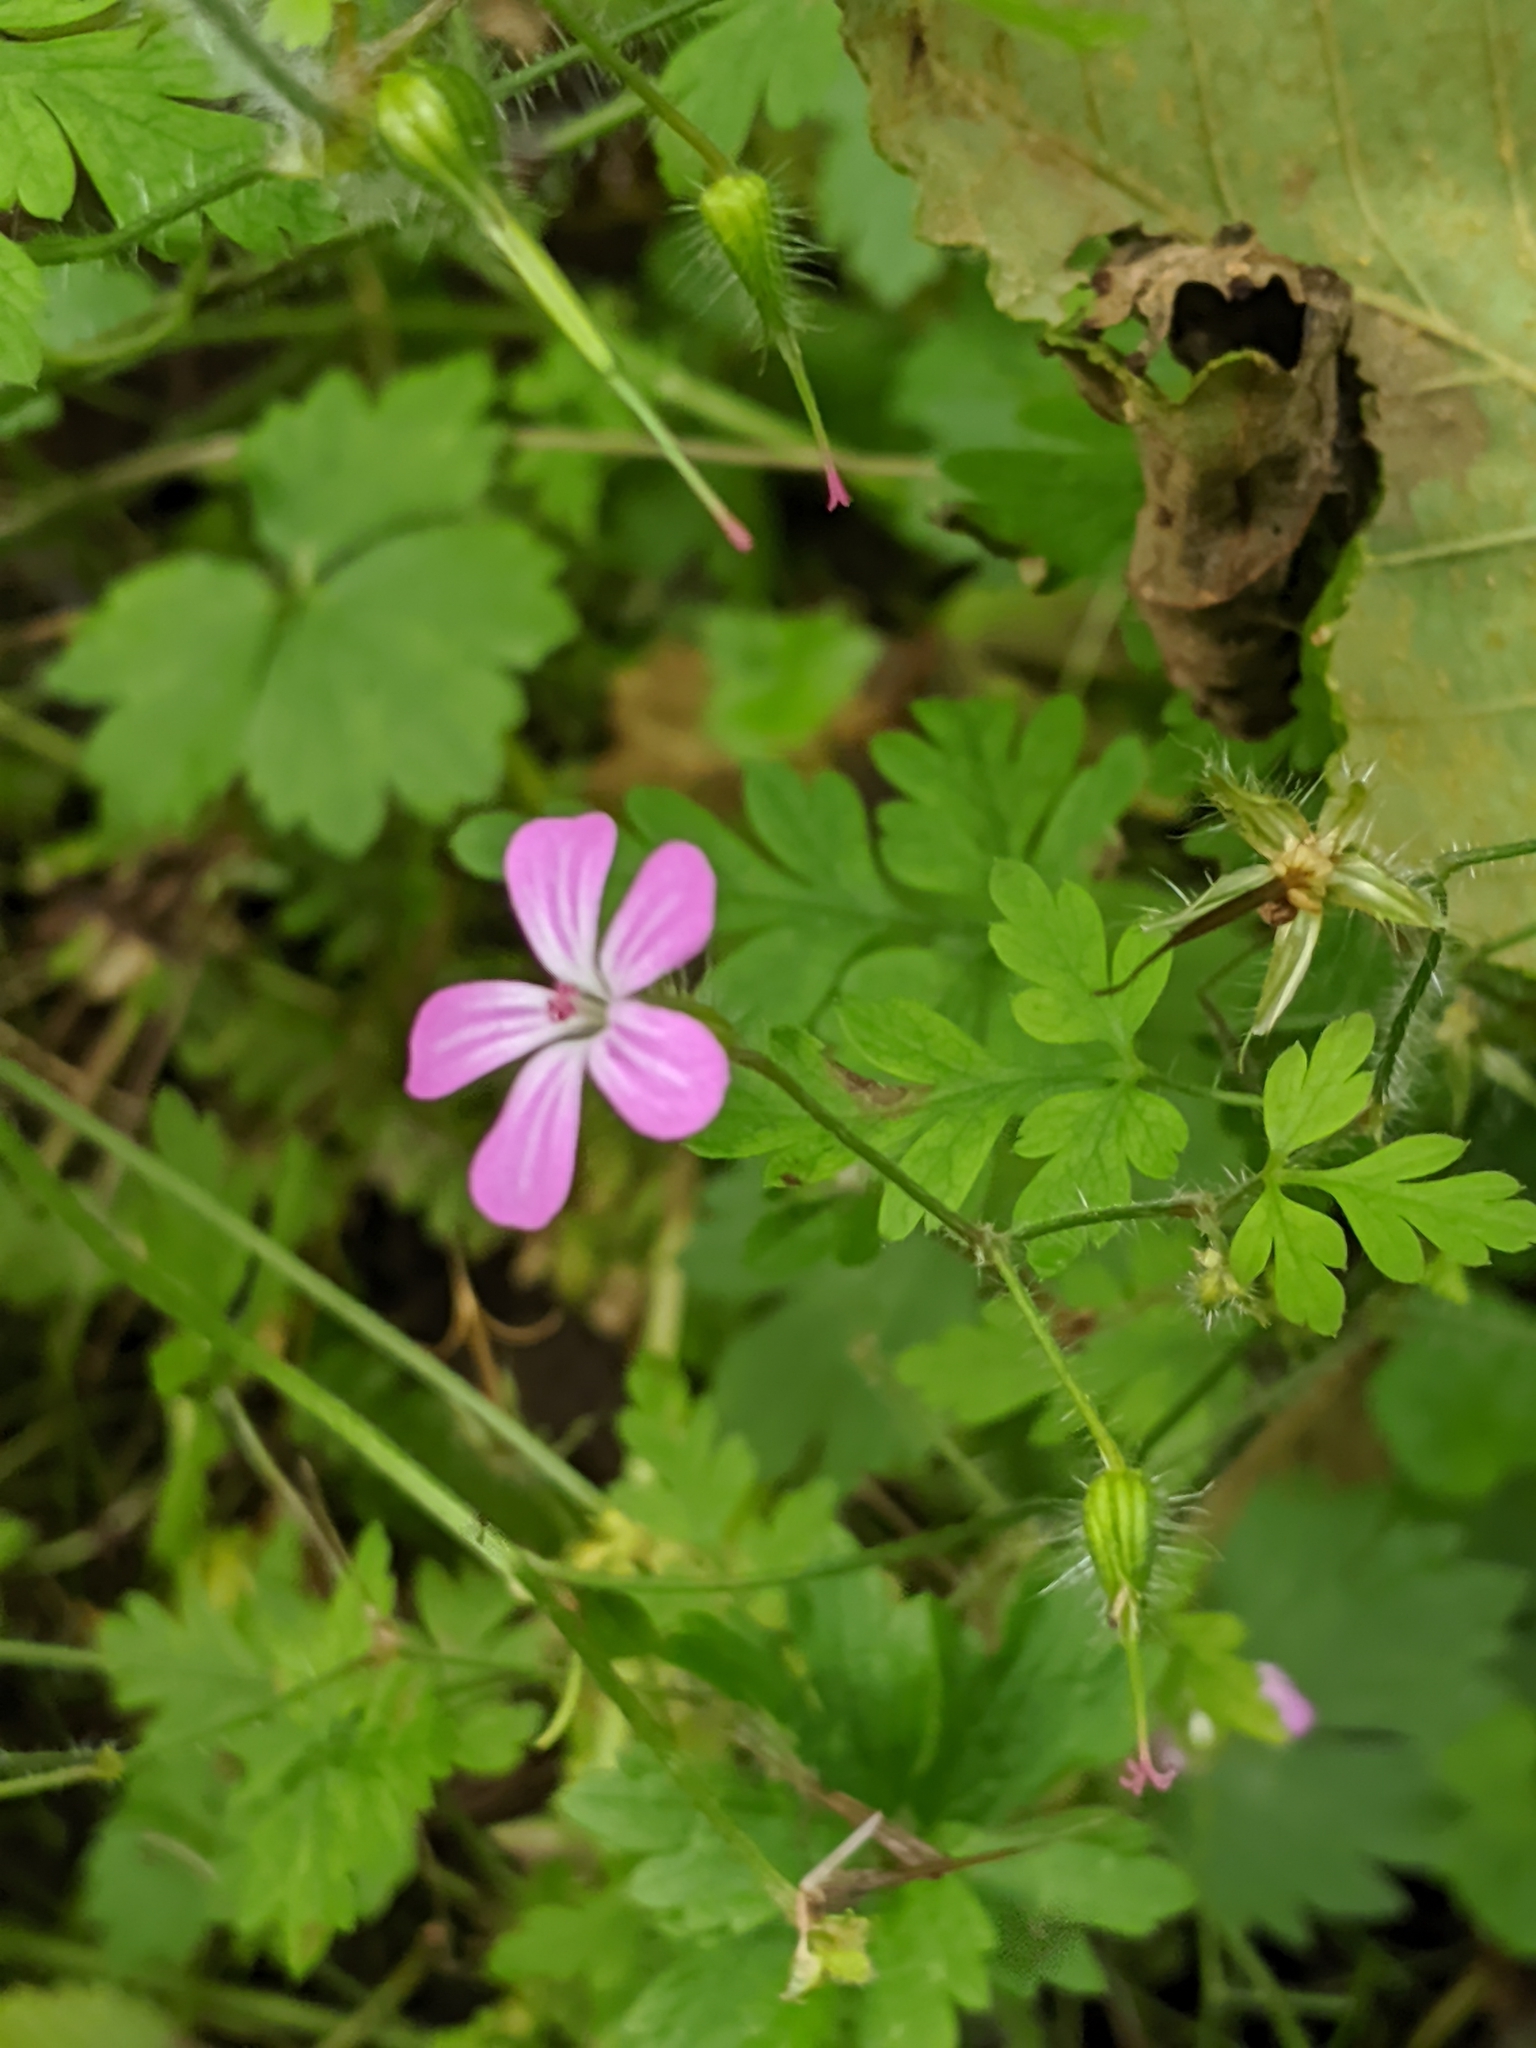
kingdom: Plantae
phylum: Tracheophyta
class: Magnoliopsida
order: Geraniales
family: Geraniaceae
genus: Geranium
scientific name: Geranium robertianum
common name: Herb-robert
